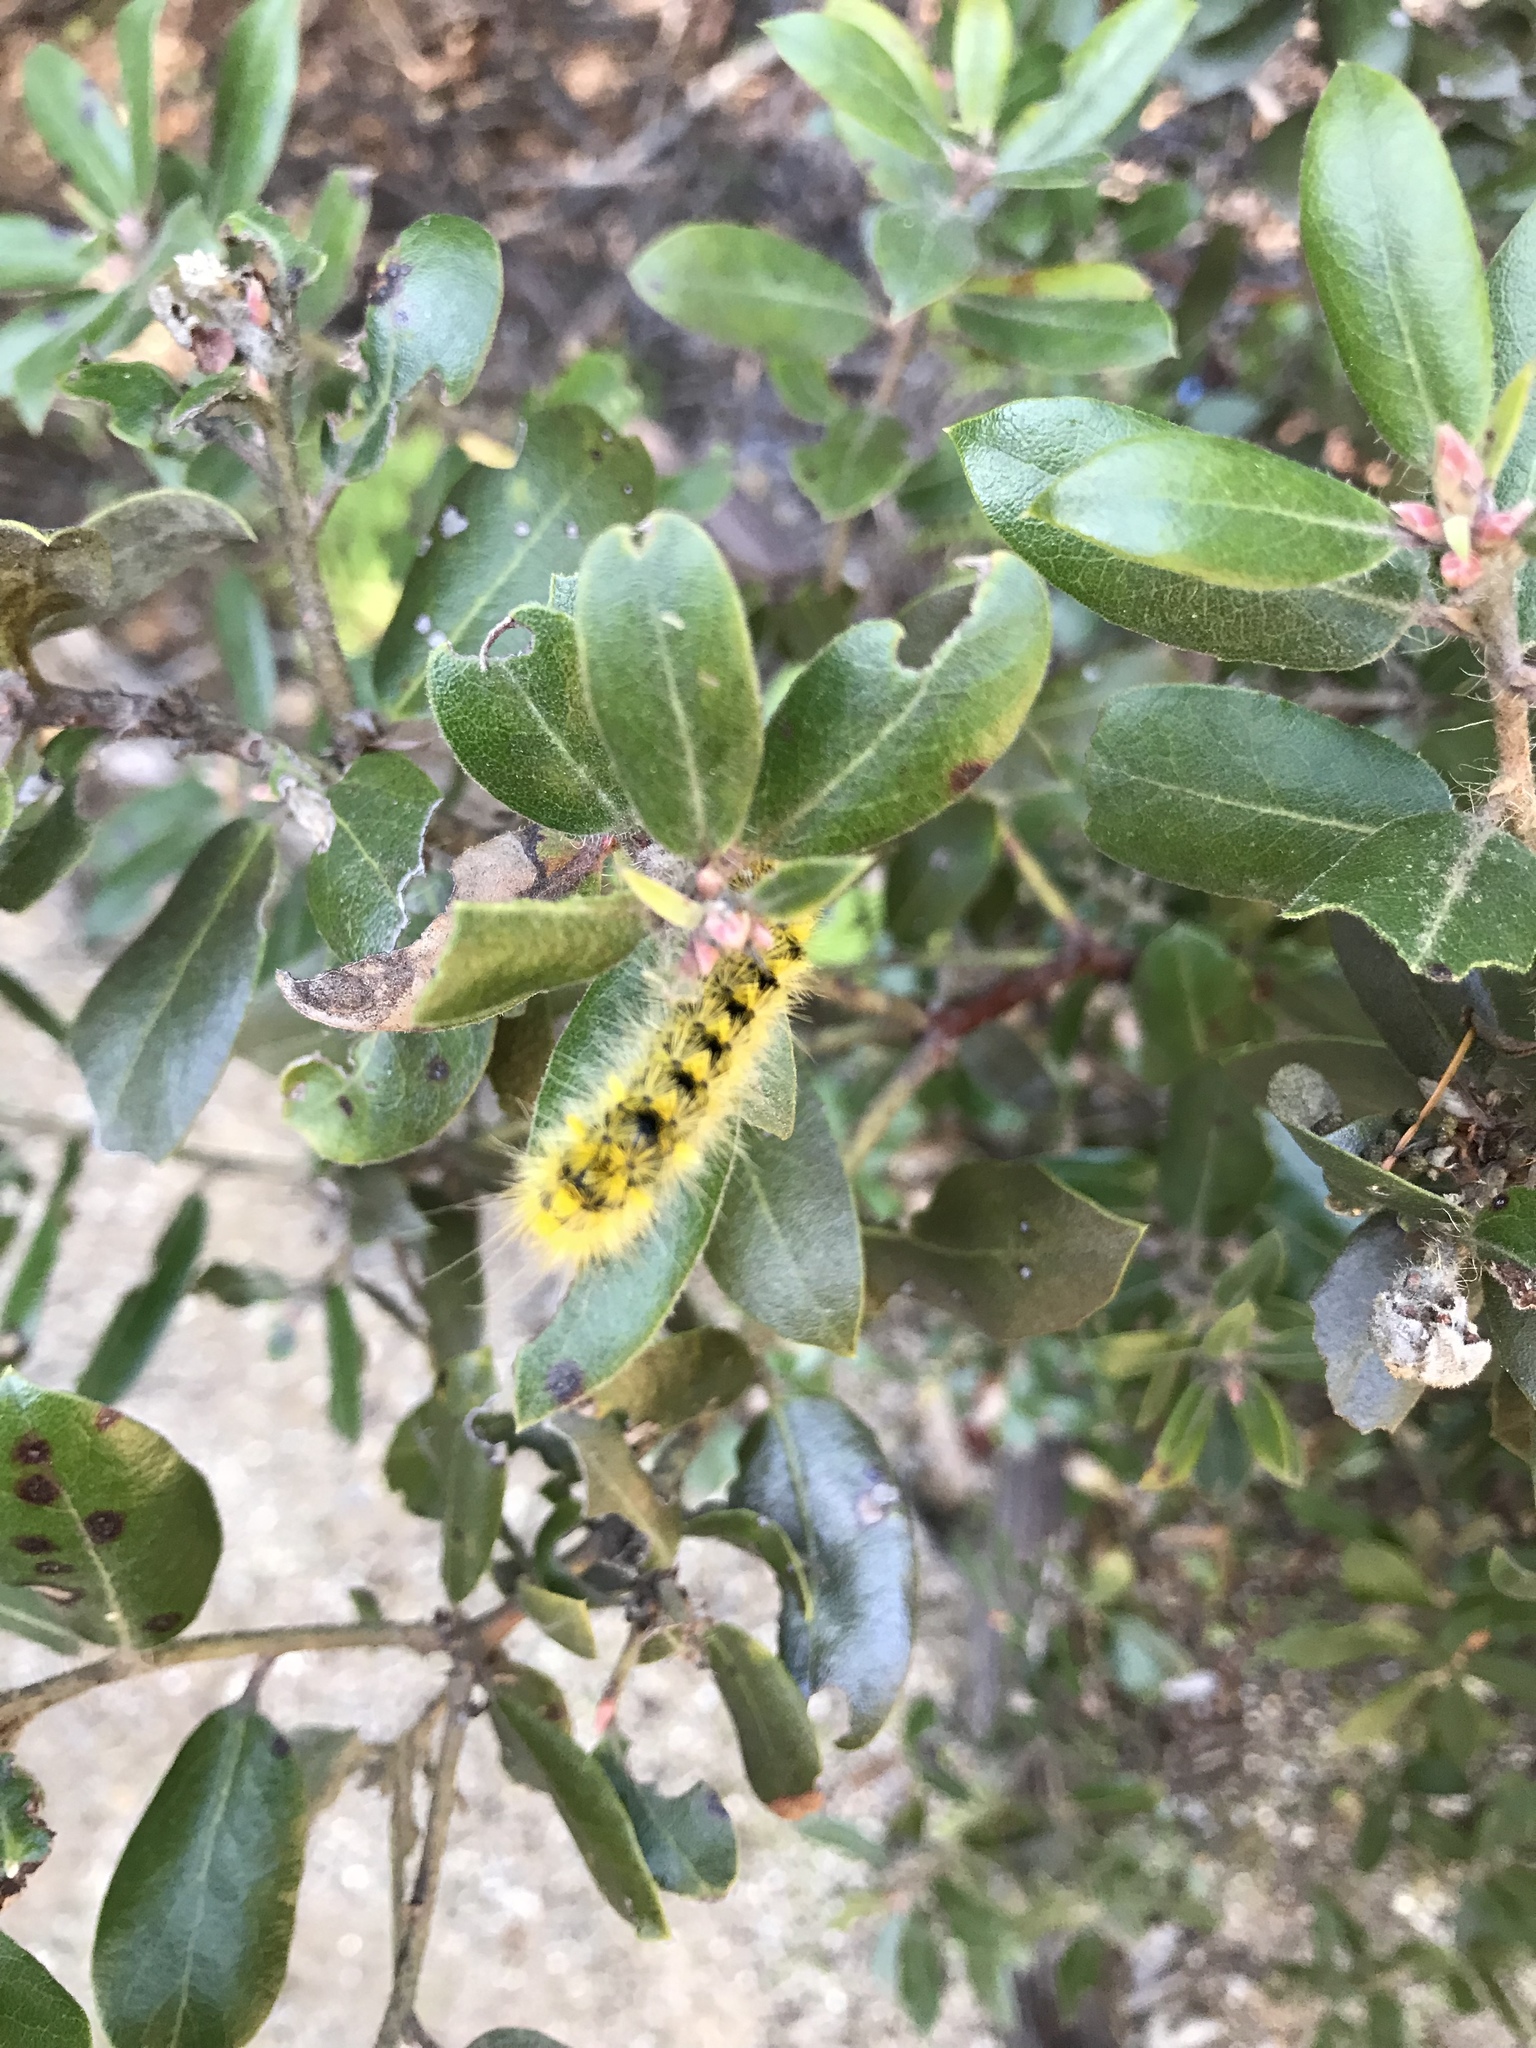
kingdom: Animalia
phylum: Arthropoda
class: Insecta
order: Lepidoptera
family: Erebidae
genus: Lophocampa
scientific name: Lophocampa argentata
